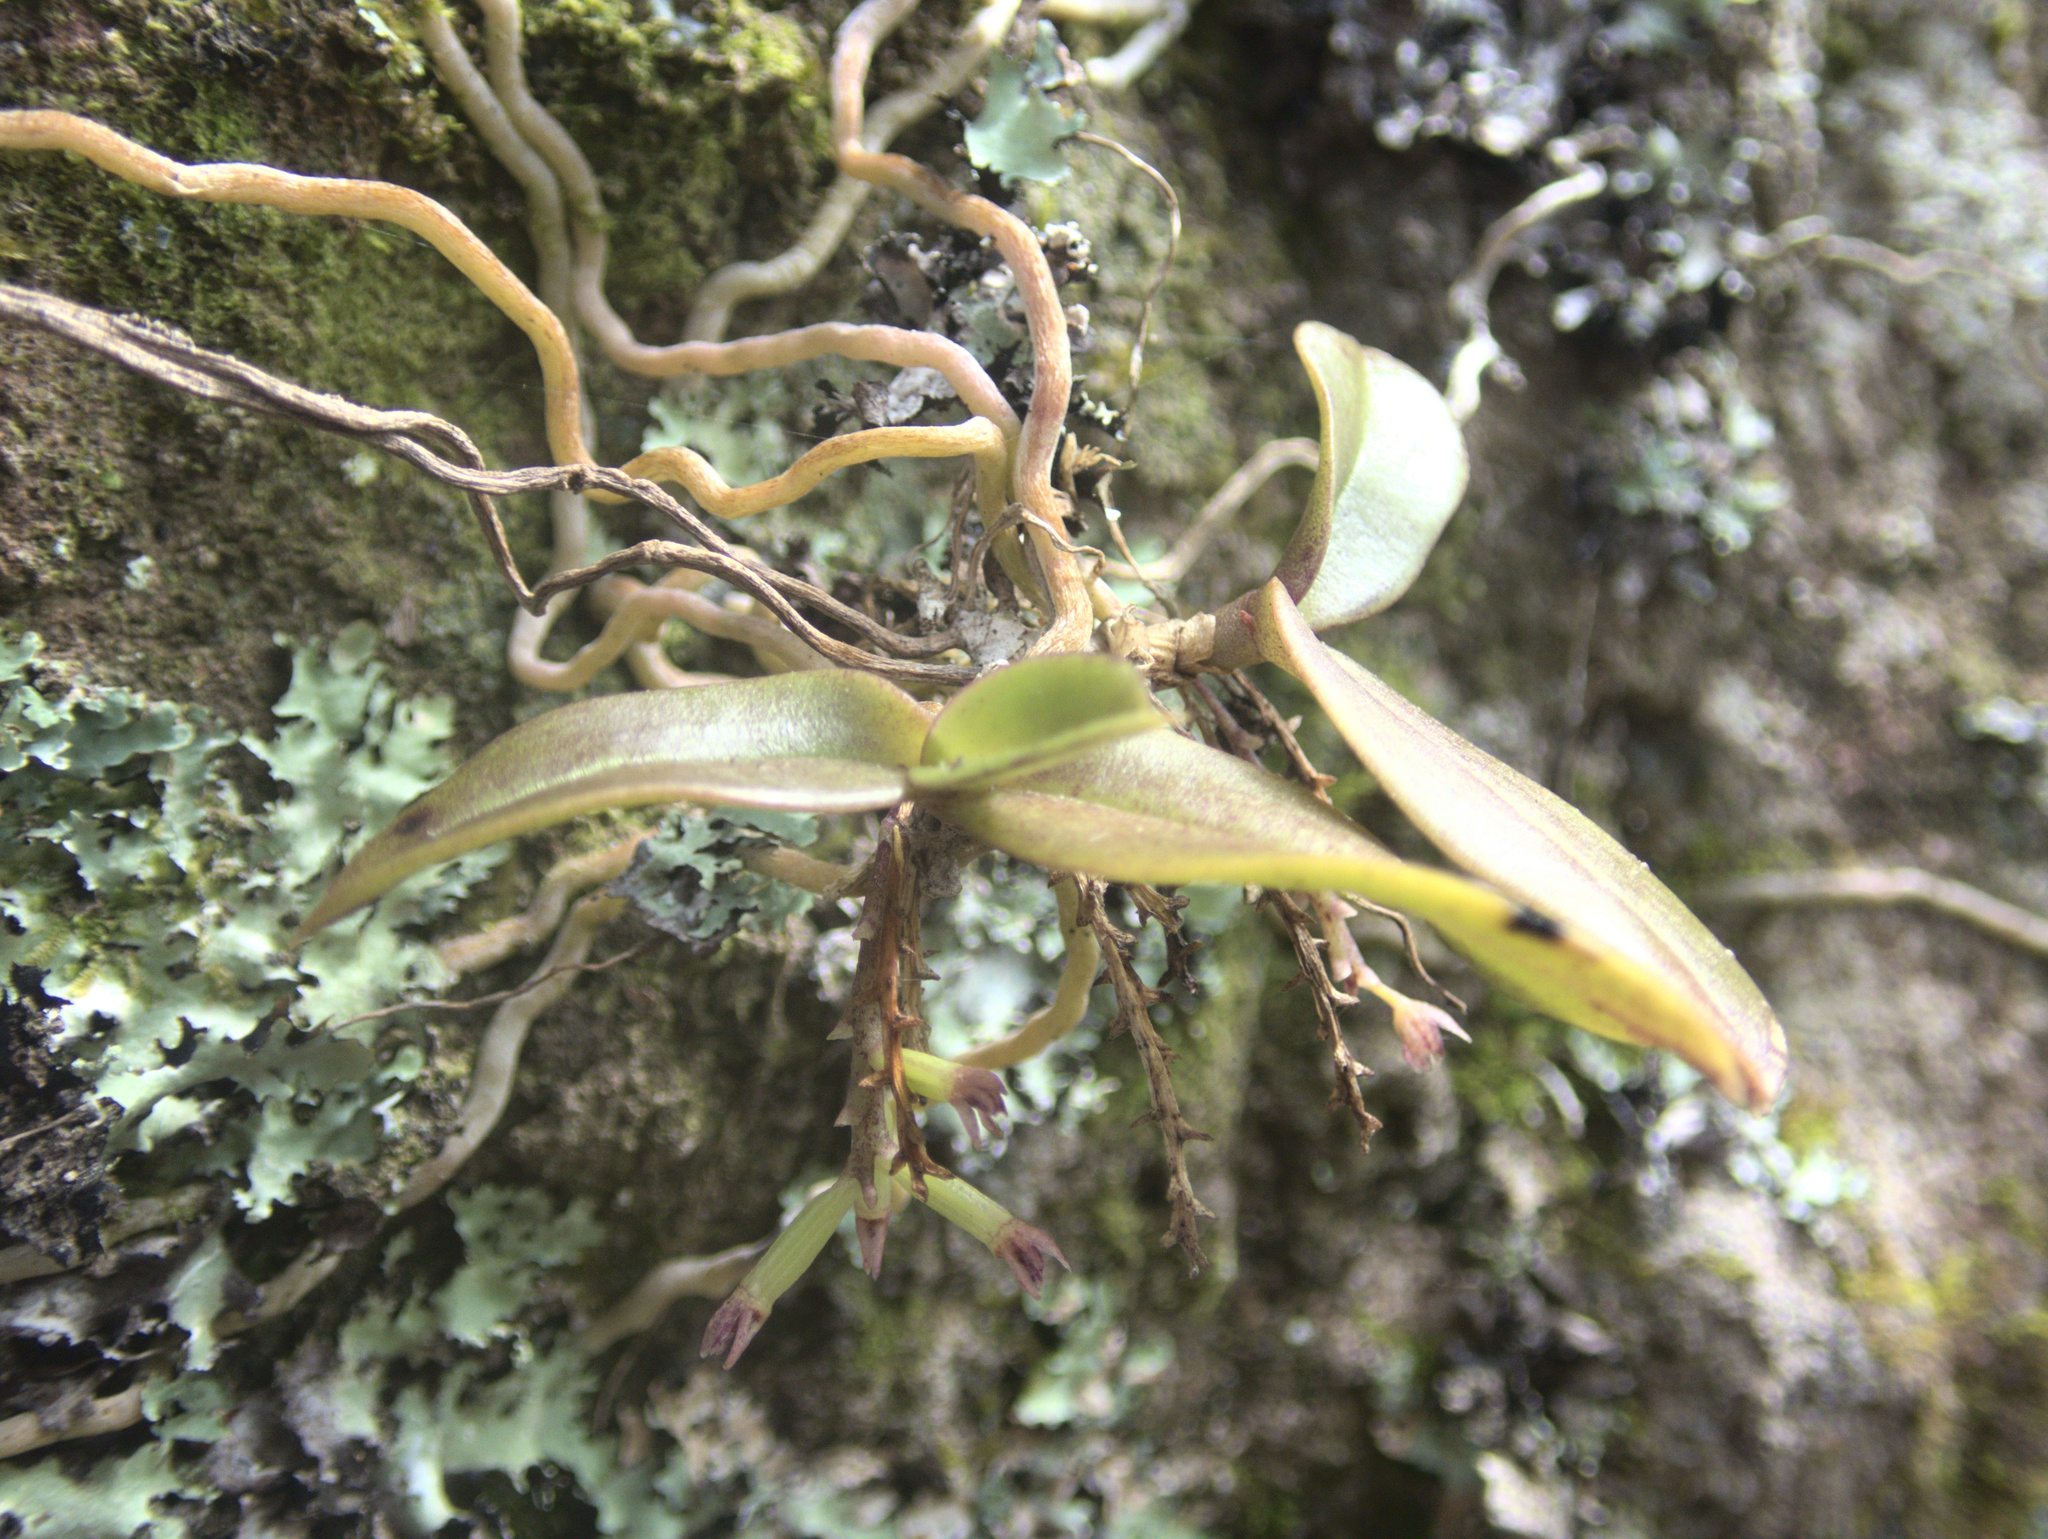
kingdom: Plantae
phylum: Tracheophyta
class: Liliopsida
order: Asparagales
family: Orchidaceae
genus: Drymoanthus
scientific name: Drymoanthus adversus
